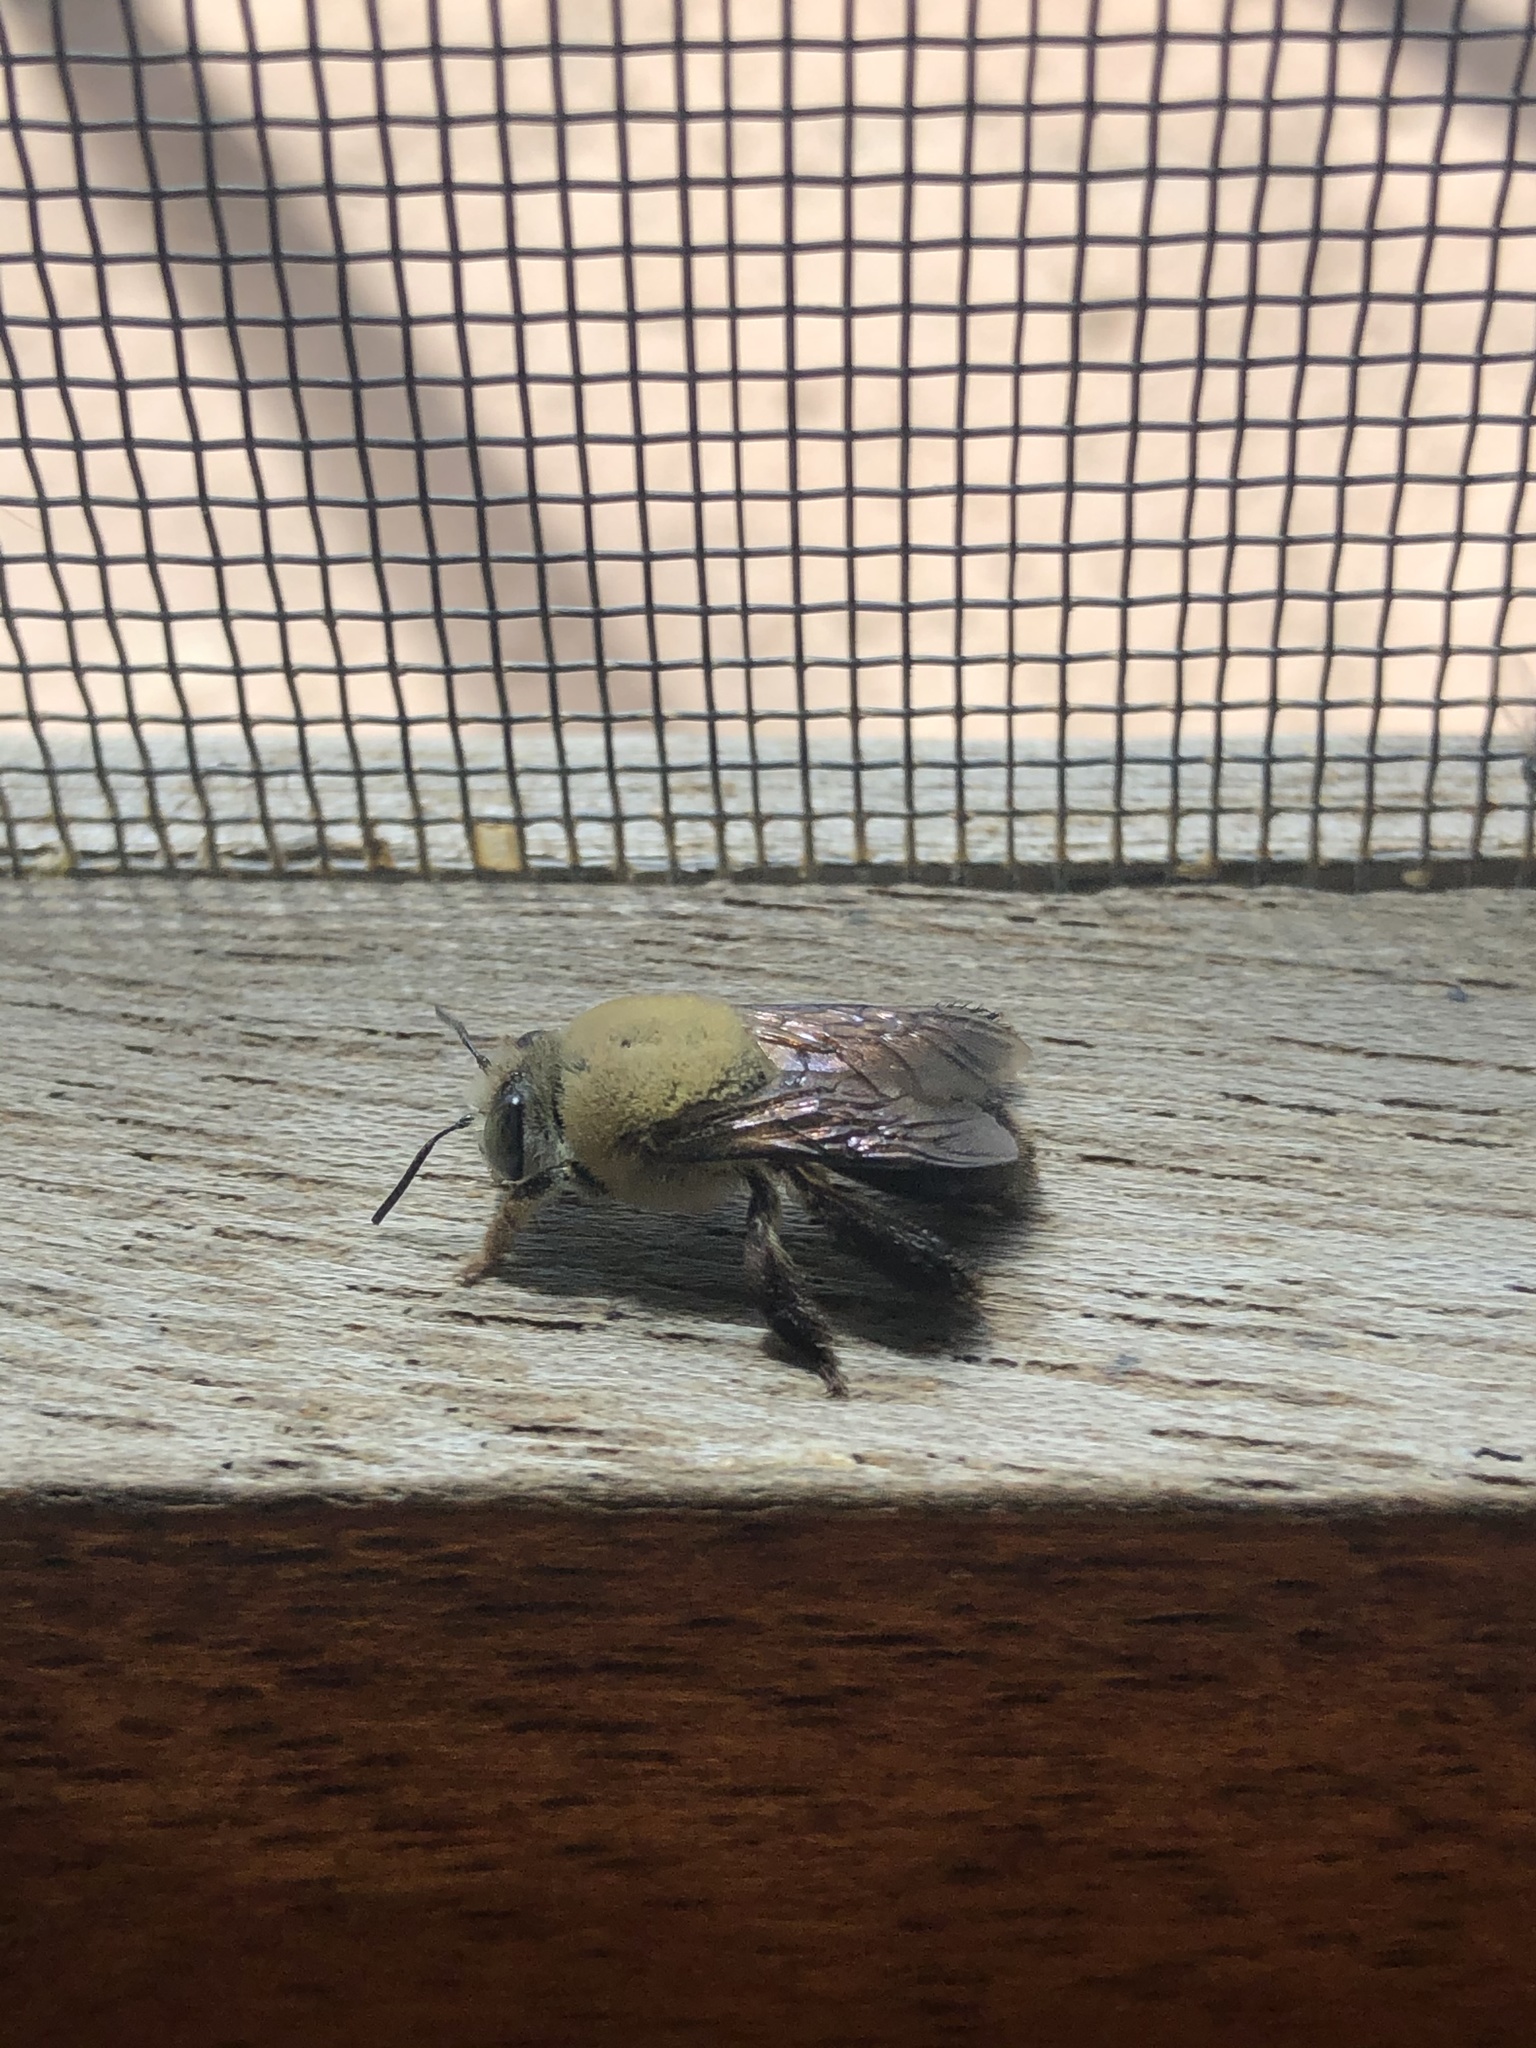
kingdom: Animalia
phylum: Arthropoda
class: Insecta
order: Hymenoptera
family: Apidae
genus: Centris
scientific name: Centris nitida
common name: Oil-collecting bee
